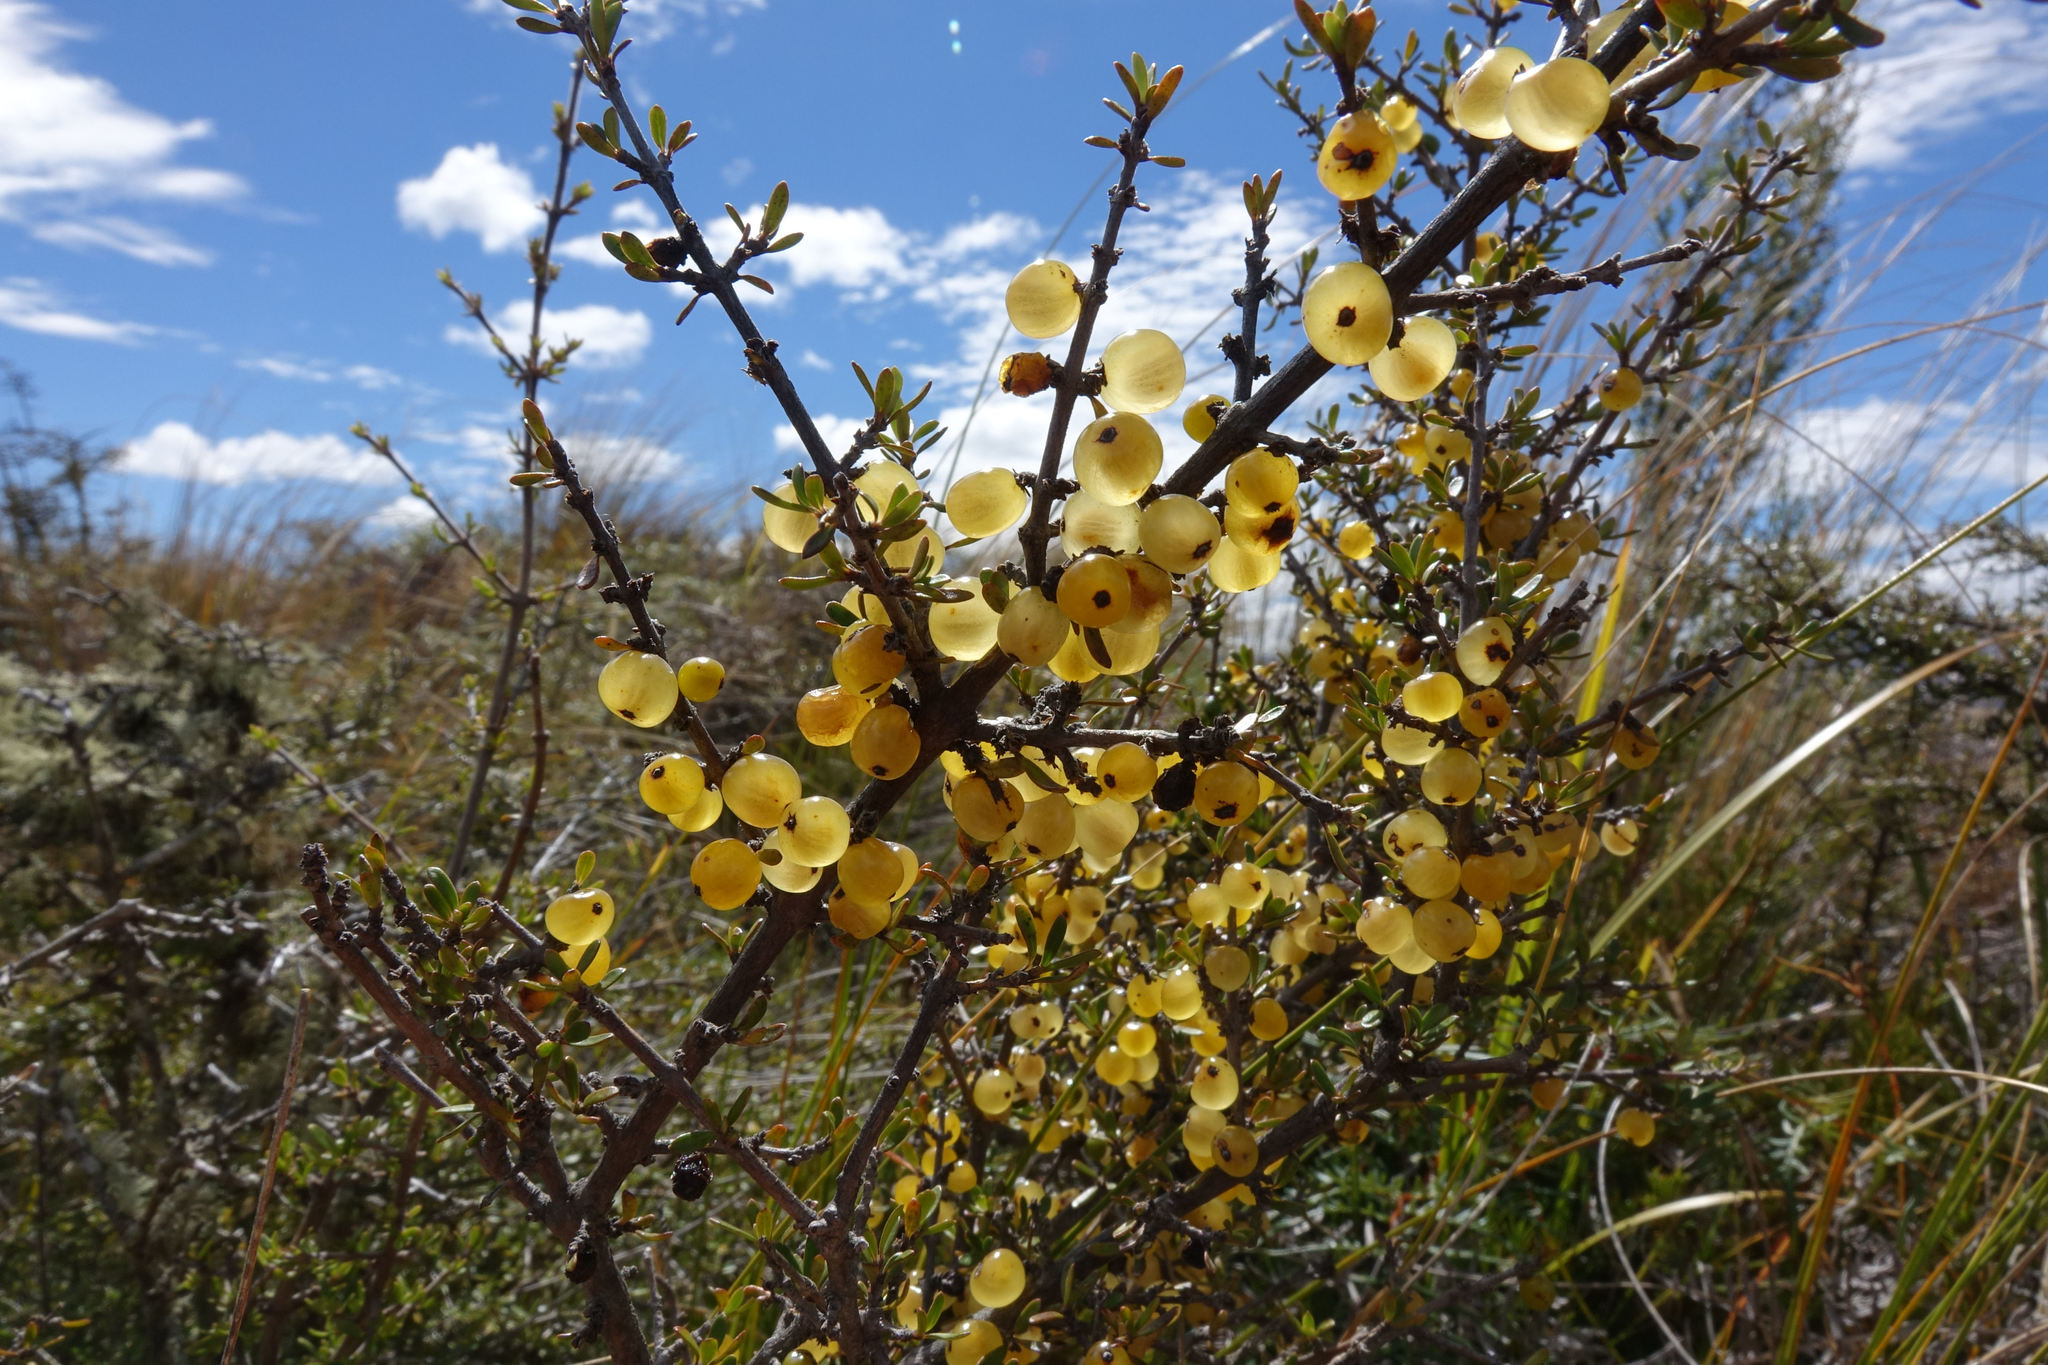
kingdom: Plantae
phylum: Tracheophyta
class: Magnoliopsida
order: Gentianales
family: Rubiaceae
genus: Coprosma
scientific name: Coprosma dumosa
